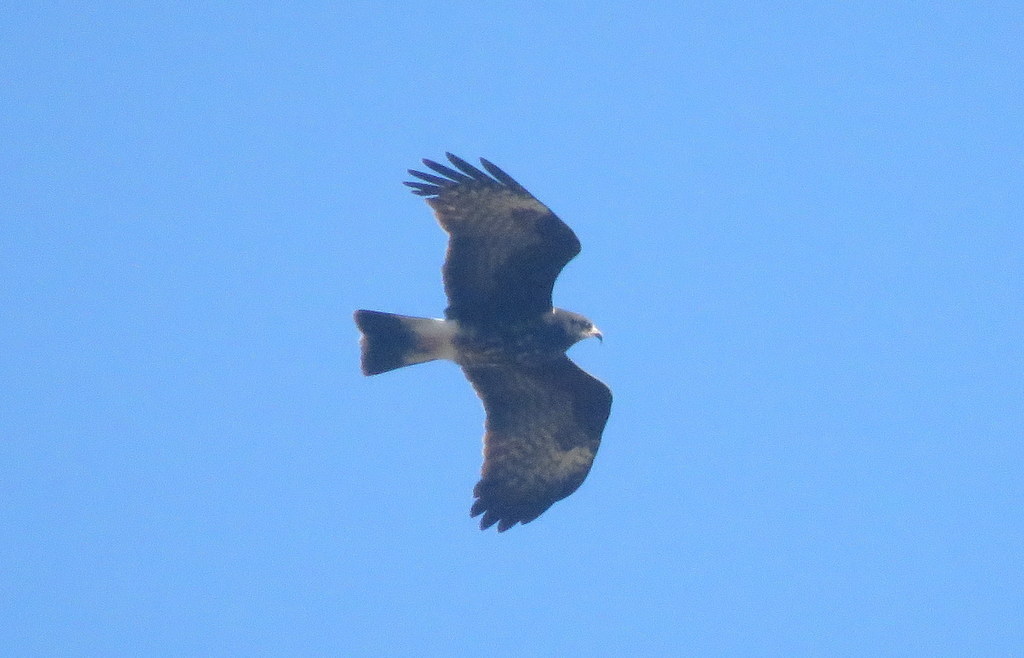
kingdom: Animalia
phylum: Chordata
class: Aves
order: Accipitriformes
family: Accipitridae
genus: Rostrhamus
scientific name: Rostrhamus sociabilis
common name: Snail kite
